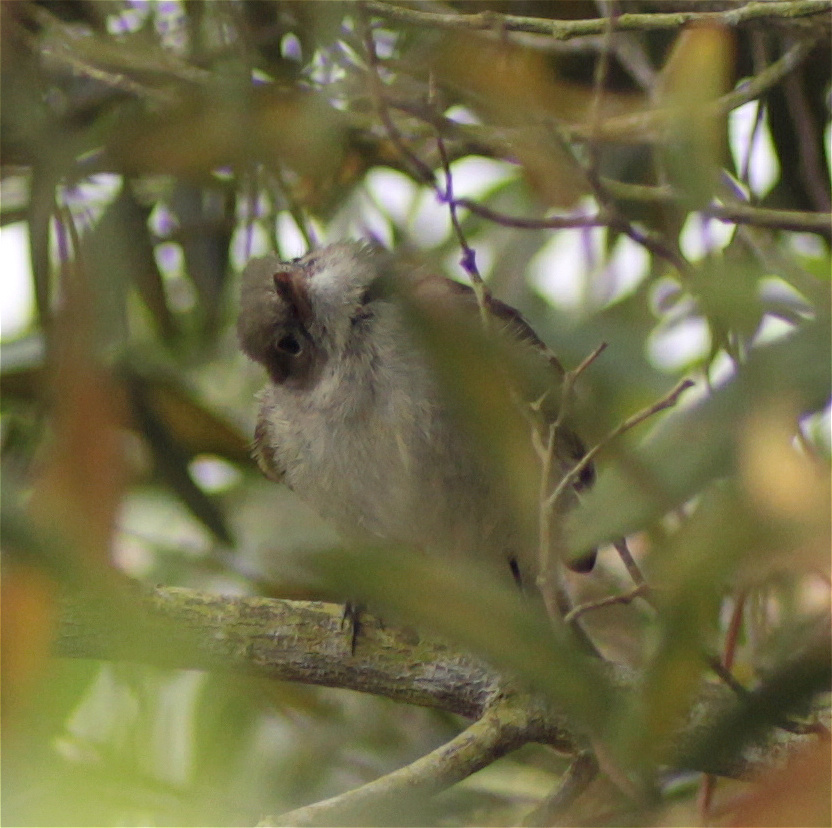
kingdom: Animalia
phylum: Chordata
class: Aves
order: Passeriformes
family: Tyrannidae
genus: Mecocerculus
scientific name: Mecocerculus leucophrys
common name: White-throated tyrannulet
